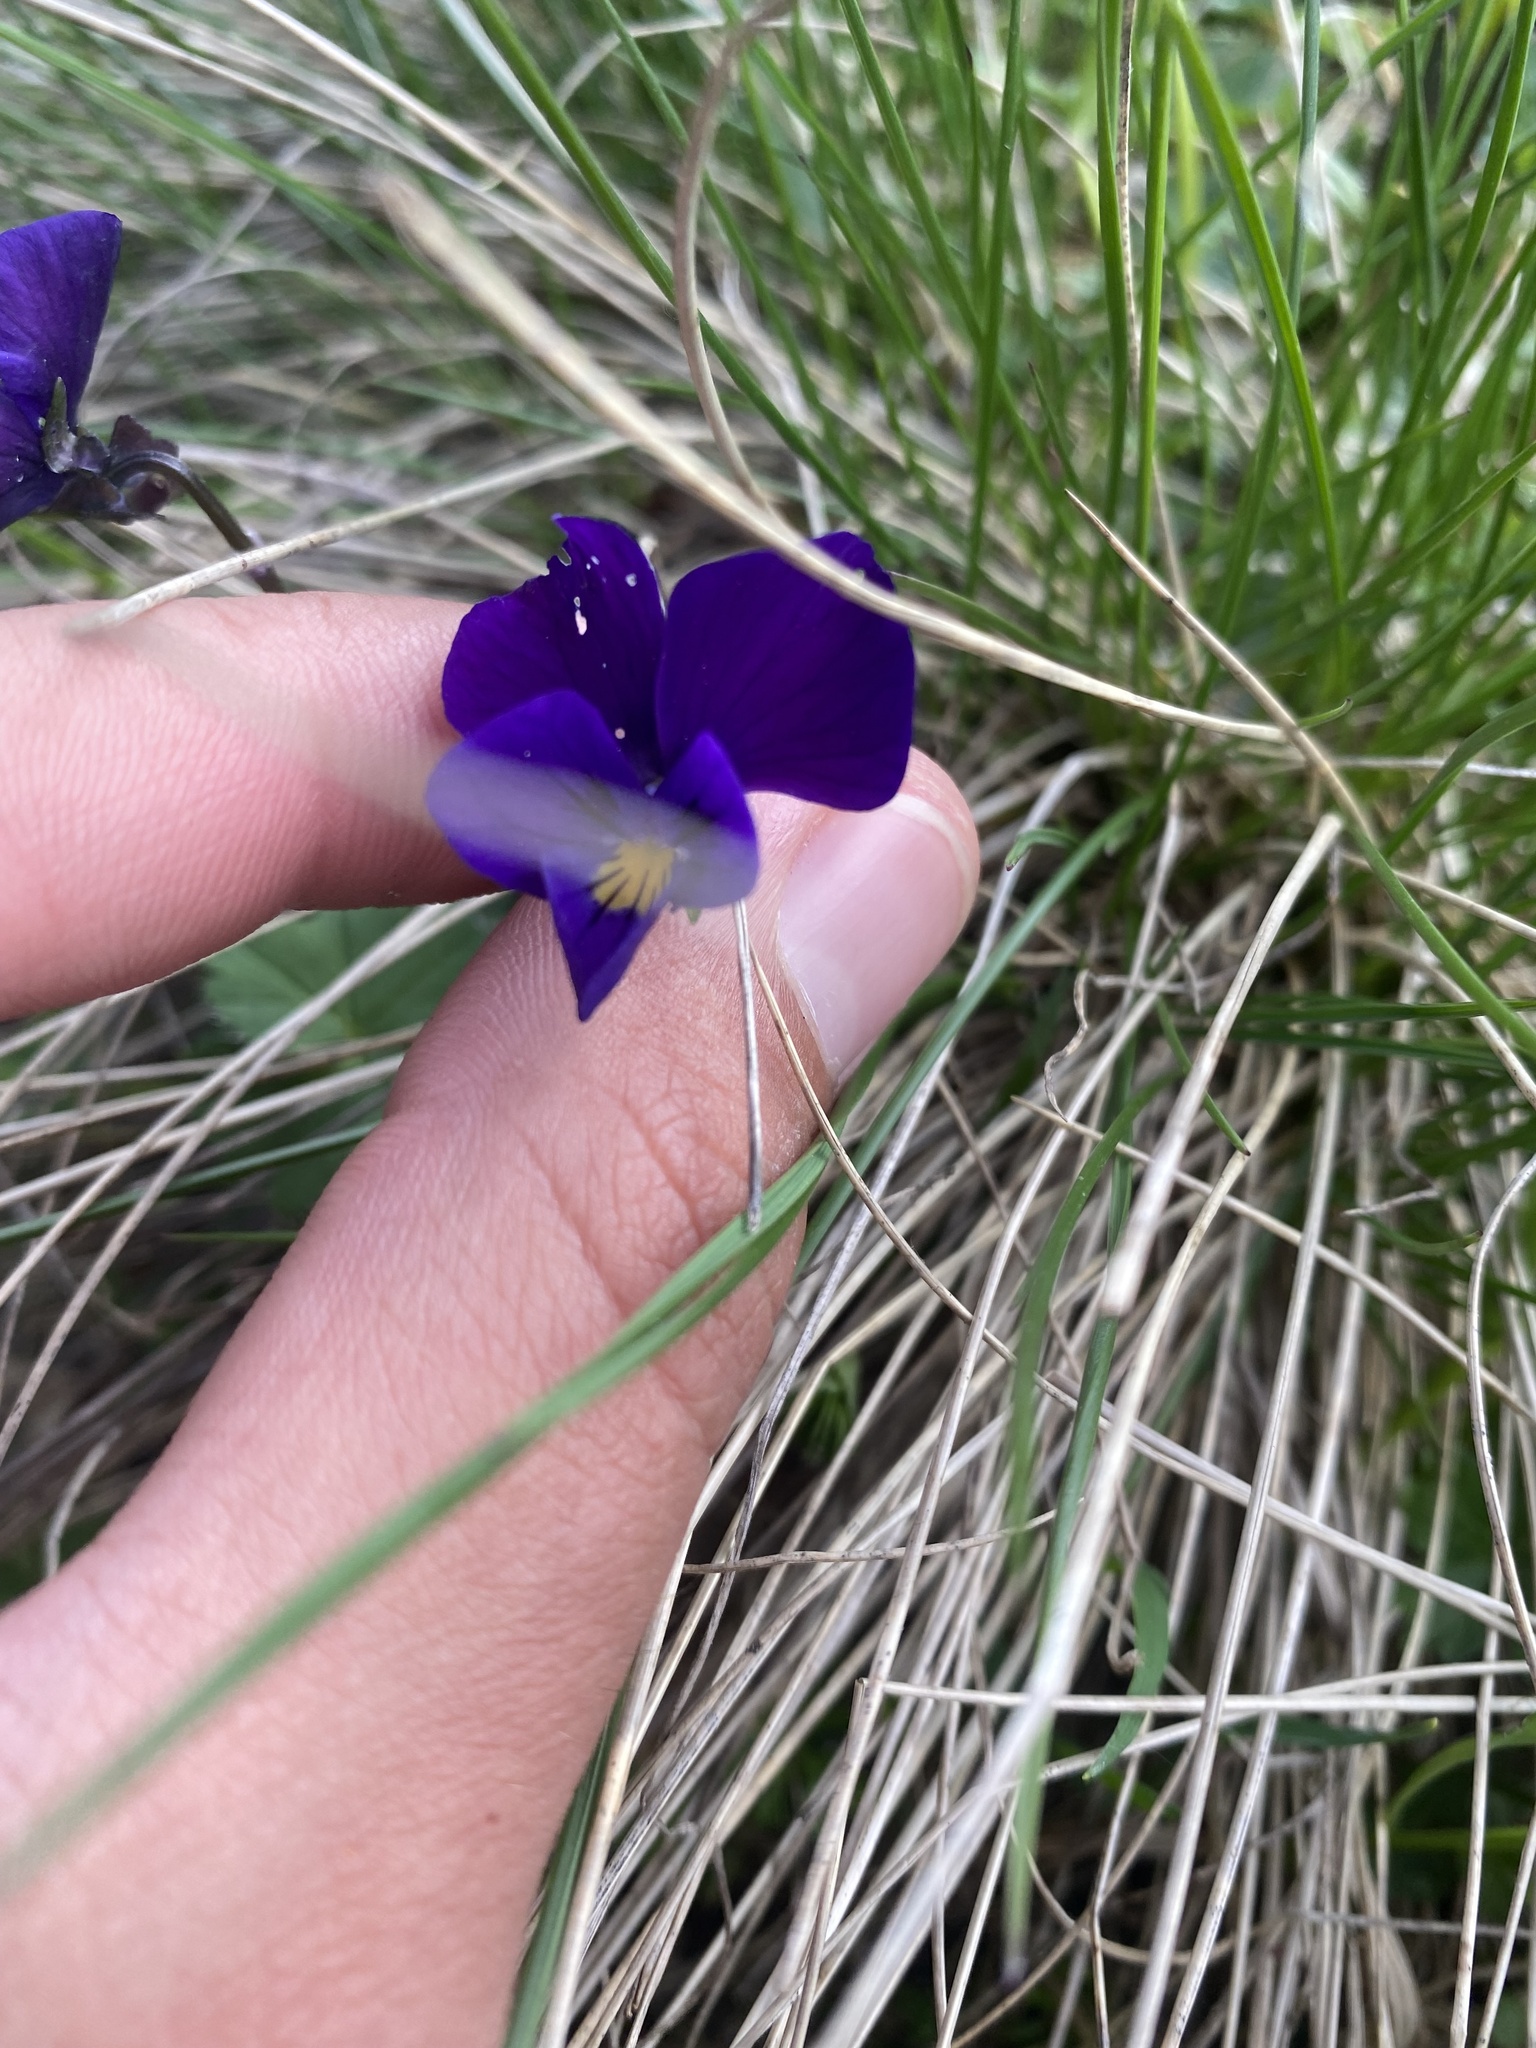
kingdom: Plantae
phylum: Tracheophyta
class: Magnoliopsida
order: Malpighiales
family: Violaceae
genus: Viola
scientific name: Viola oreades
